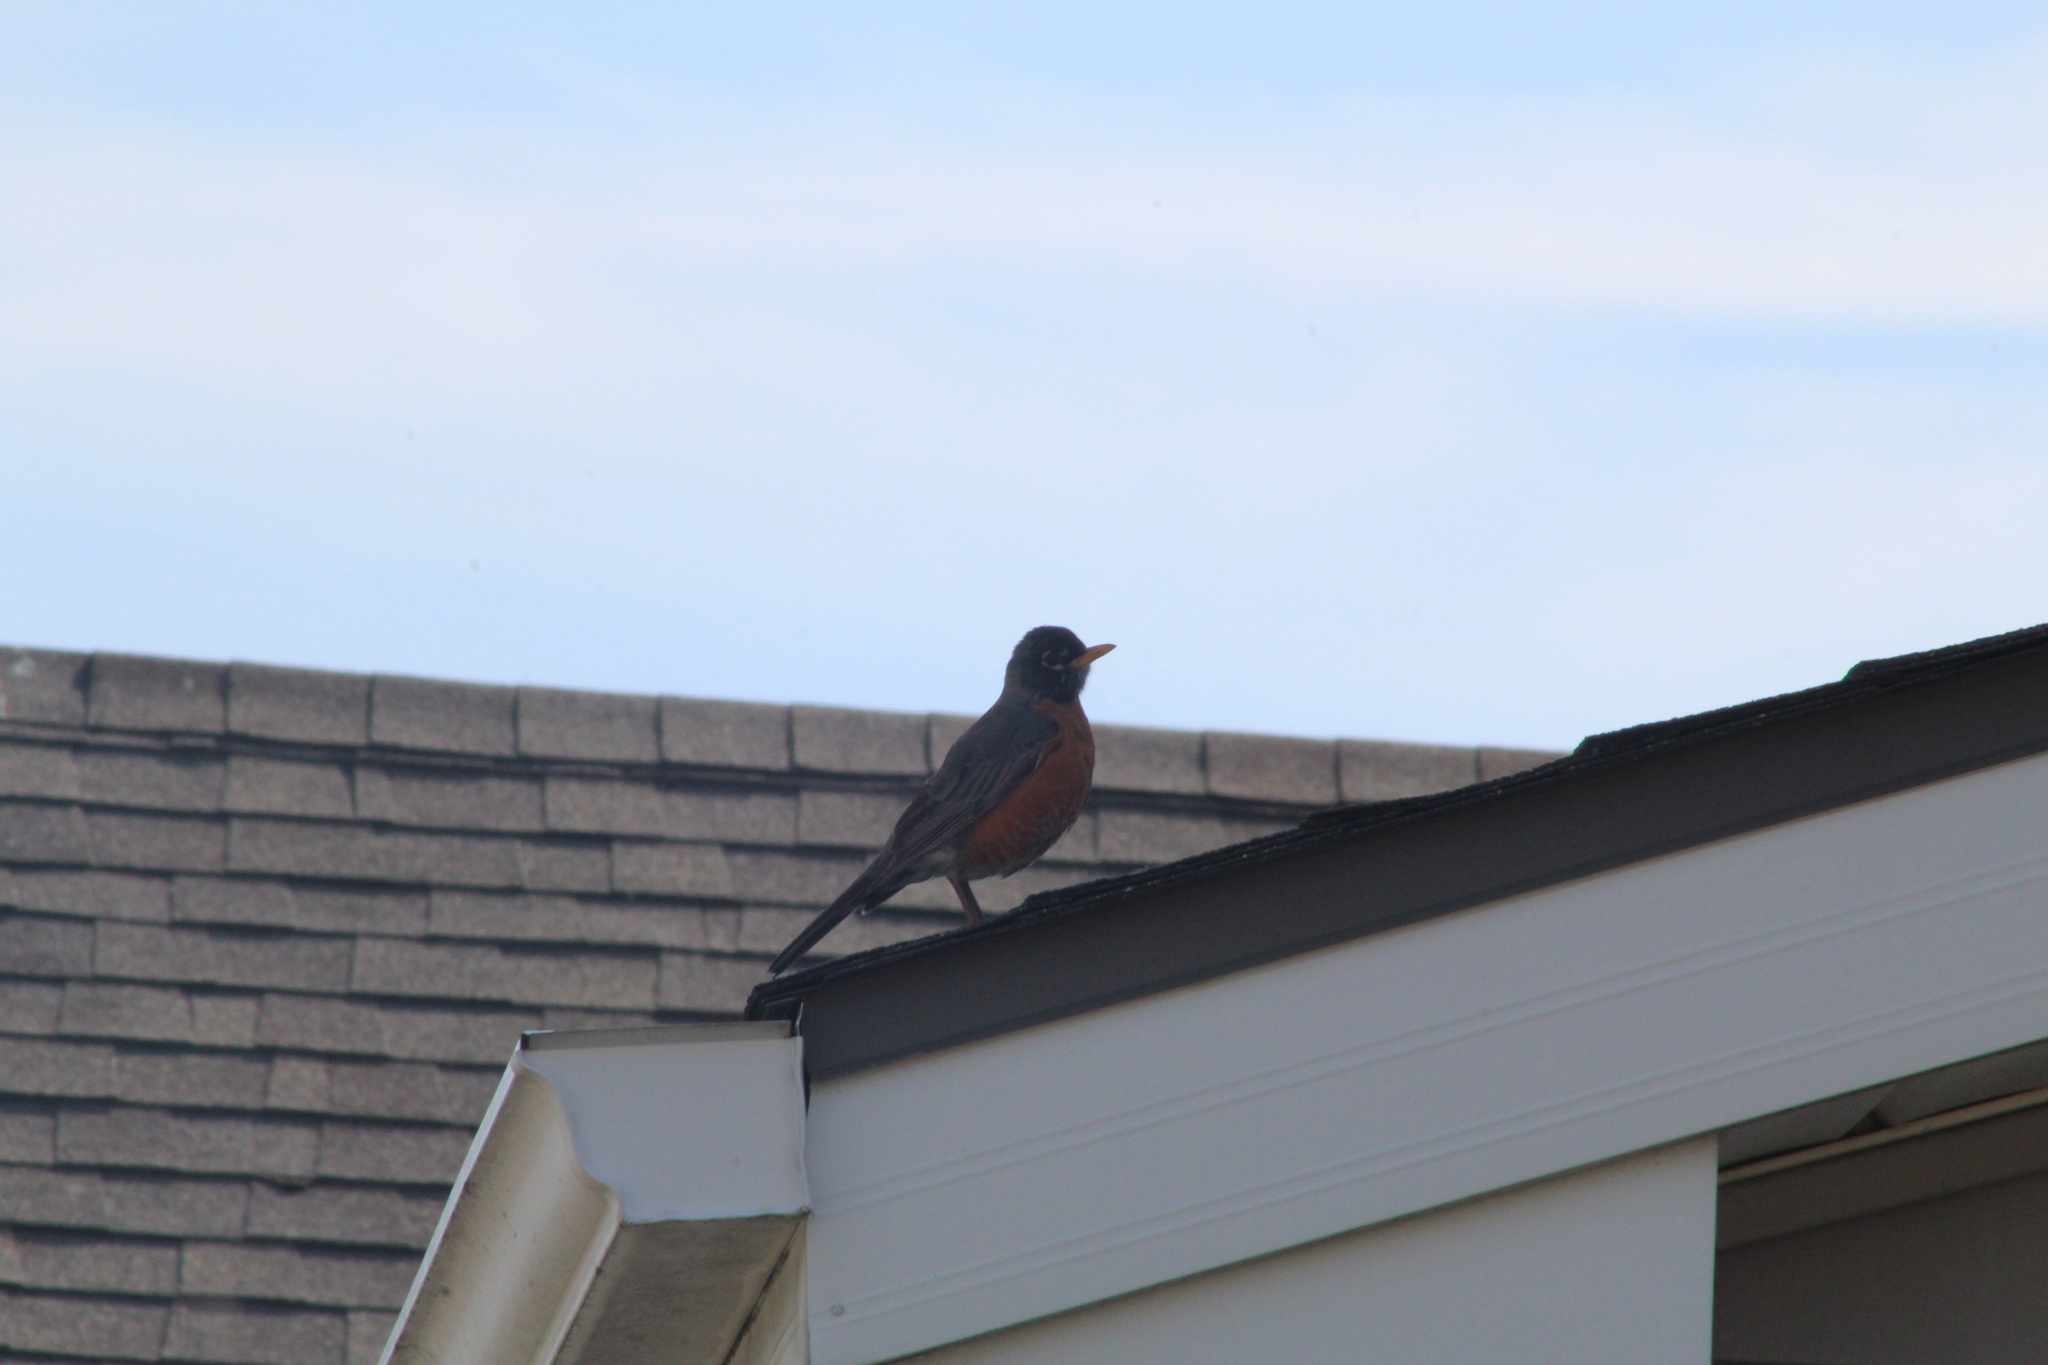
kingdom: Animalia
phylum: Chordata
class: Aves
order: Passeriformes
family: Turdidae
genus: Turdus
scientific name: Turdus migratorius
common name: American robin
